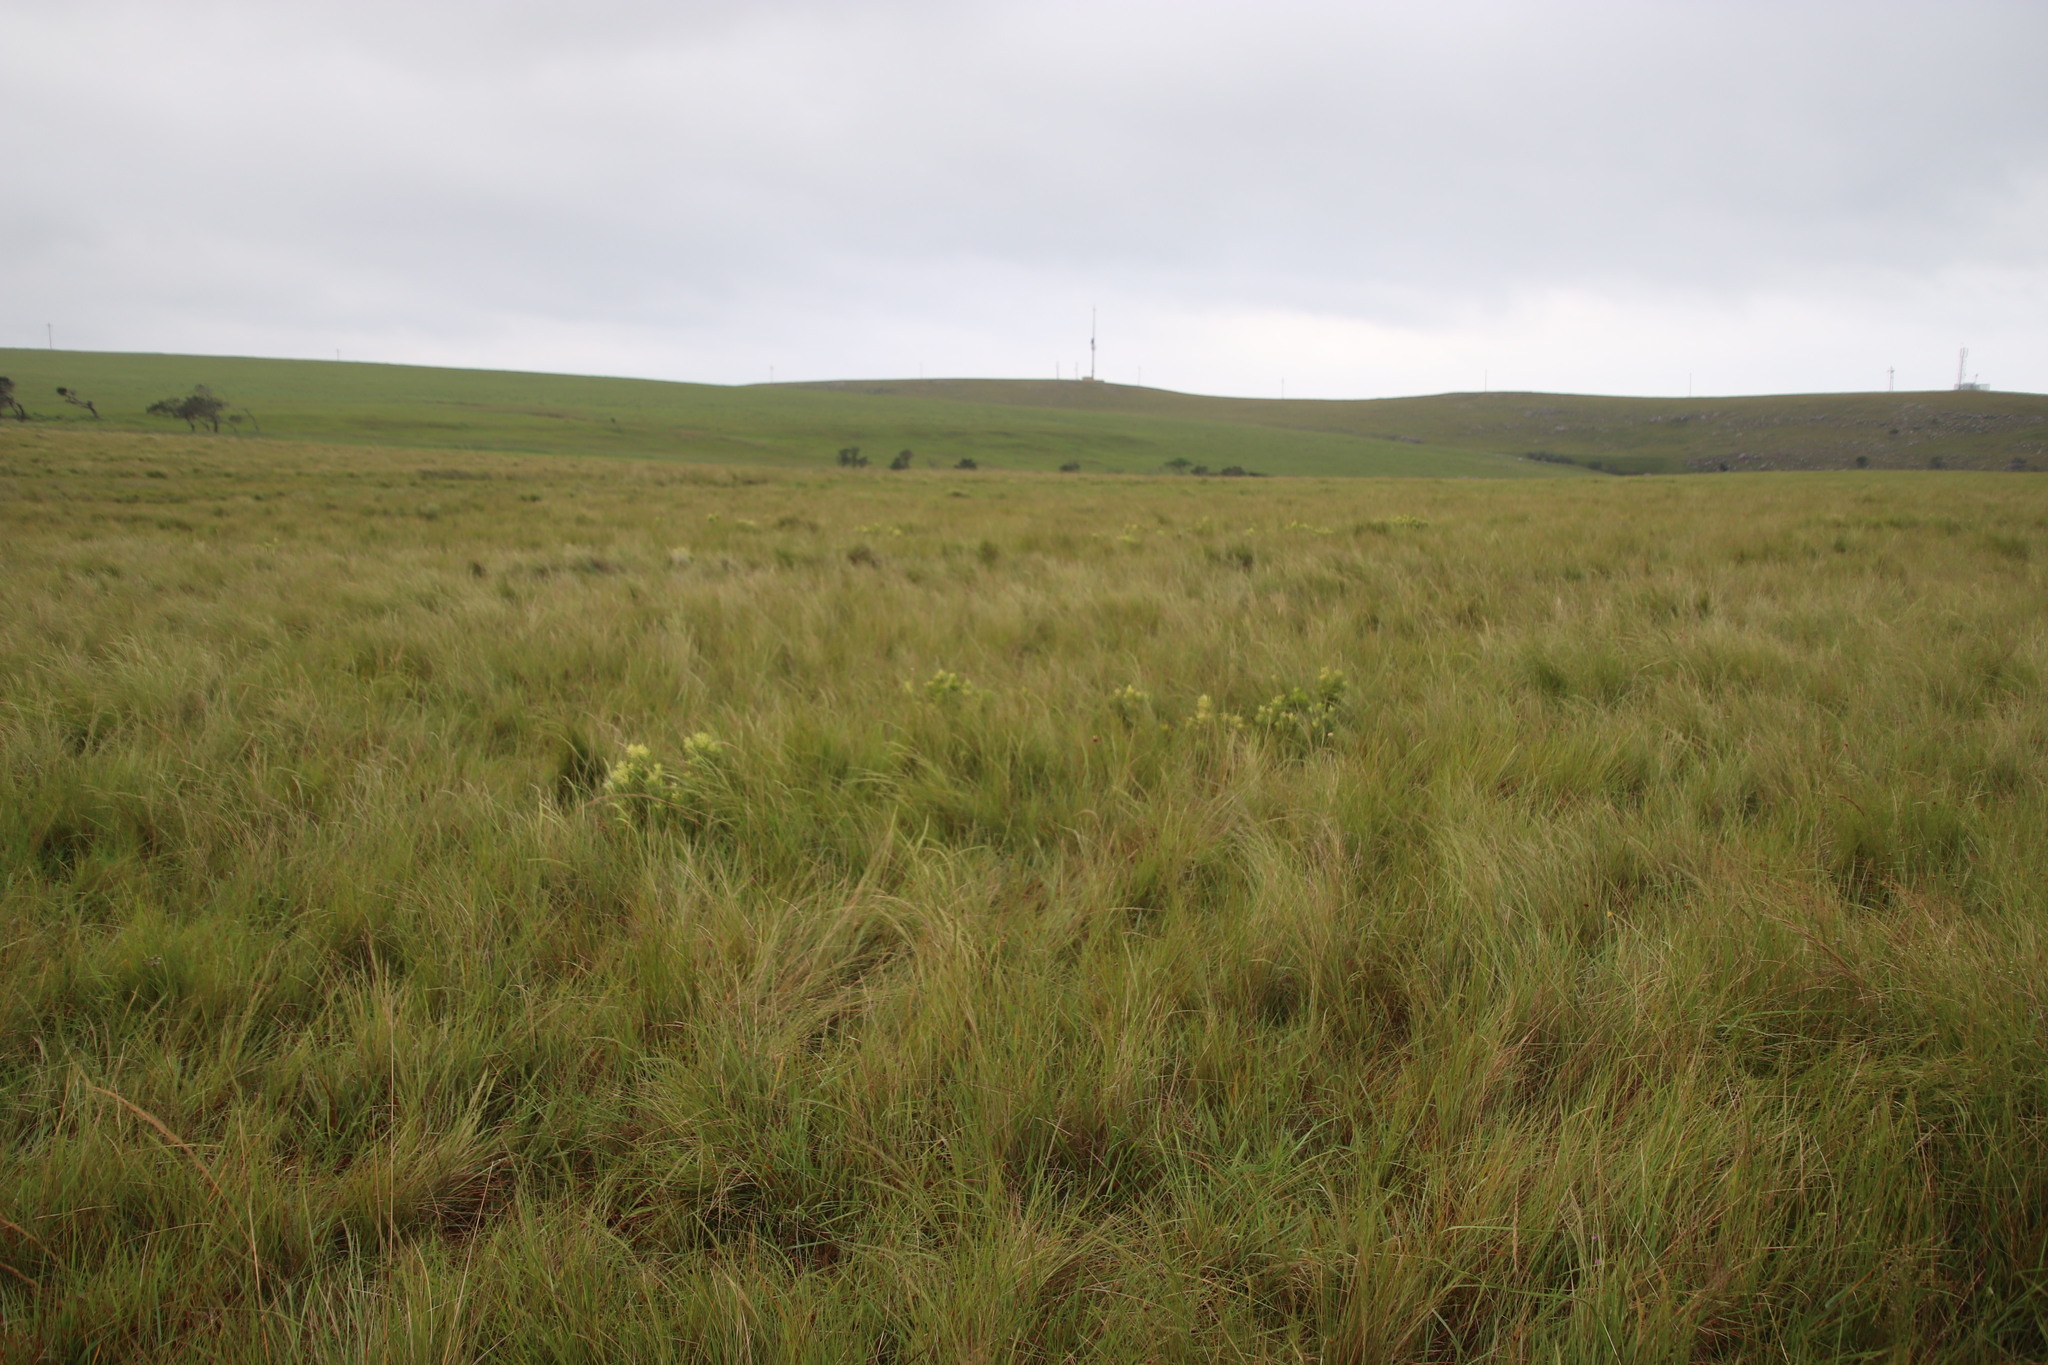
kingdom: Plantae
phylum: Tracheophyta
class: Magnoliopsida
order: Proteales
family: Proteaceae
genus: Leucadendron
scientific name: Leucadendron spissifolium
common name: Spear-leaf conebush
